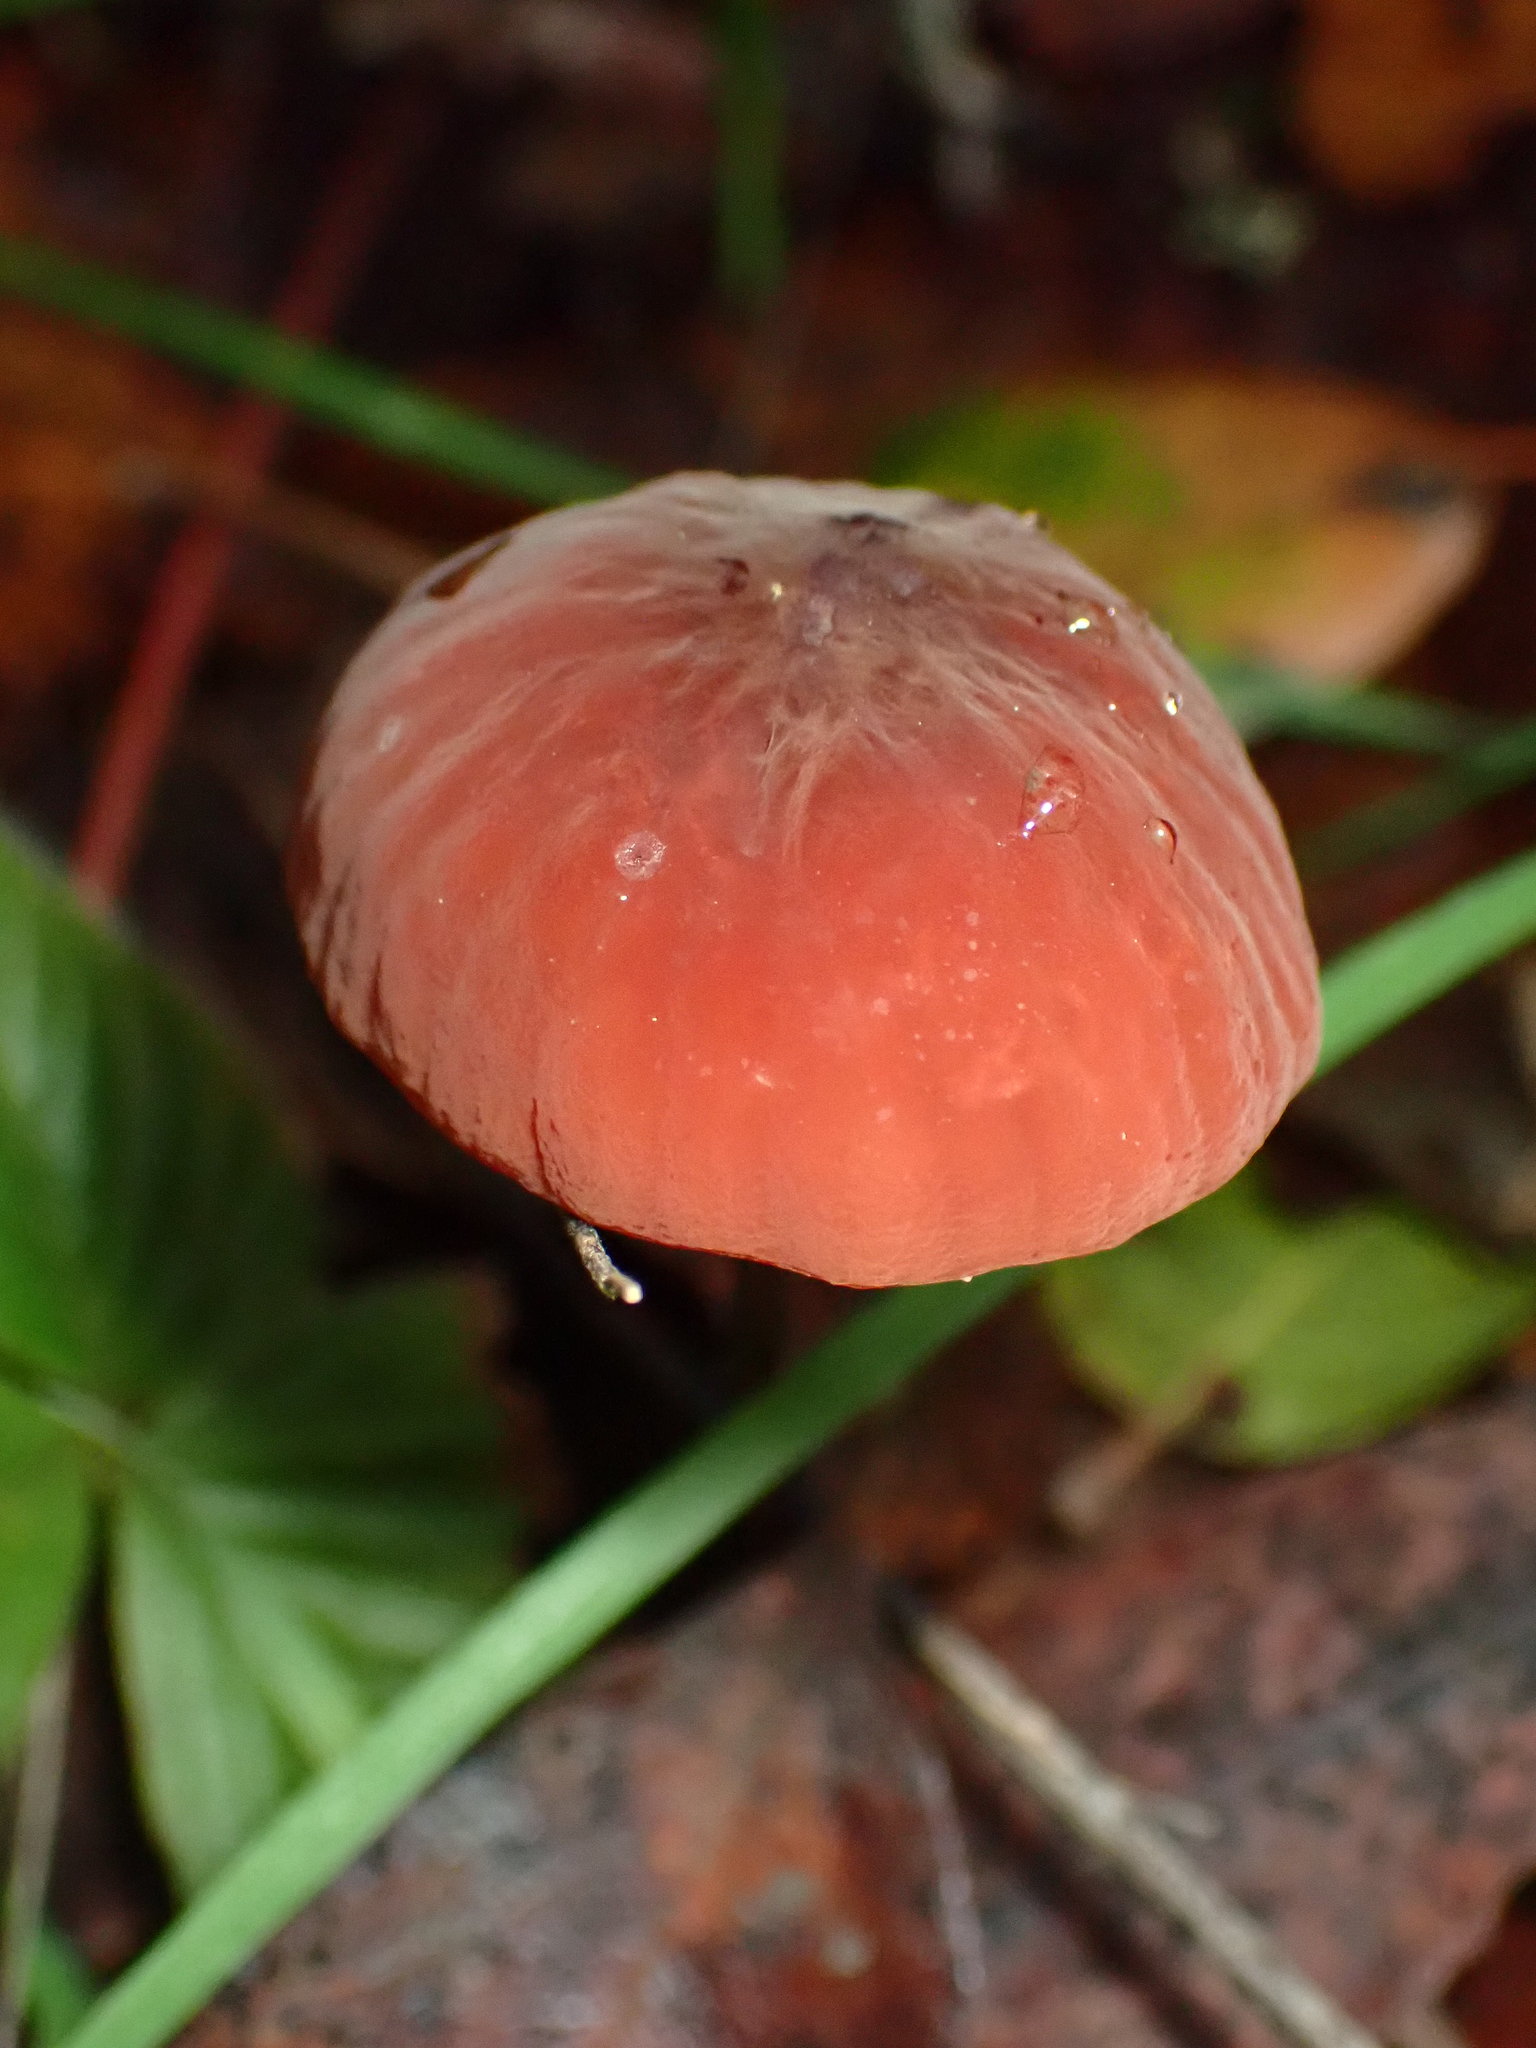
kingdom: Fungi
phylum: Basidiomycota
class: Agaricomycetes
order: Agaricales
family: Marasmiaceae
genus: Marasmius
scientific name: Marasmius plicatulus
